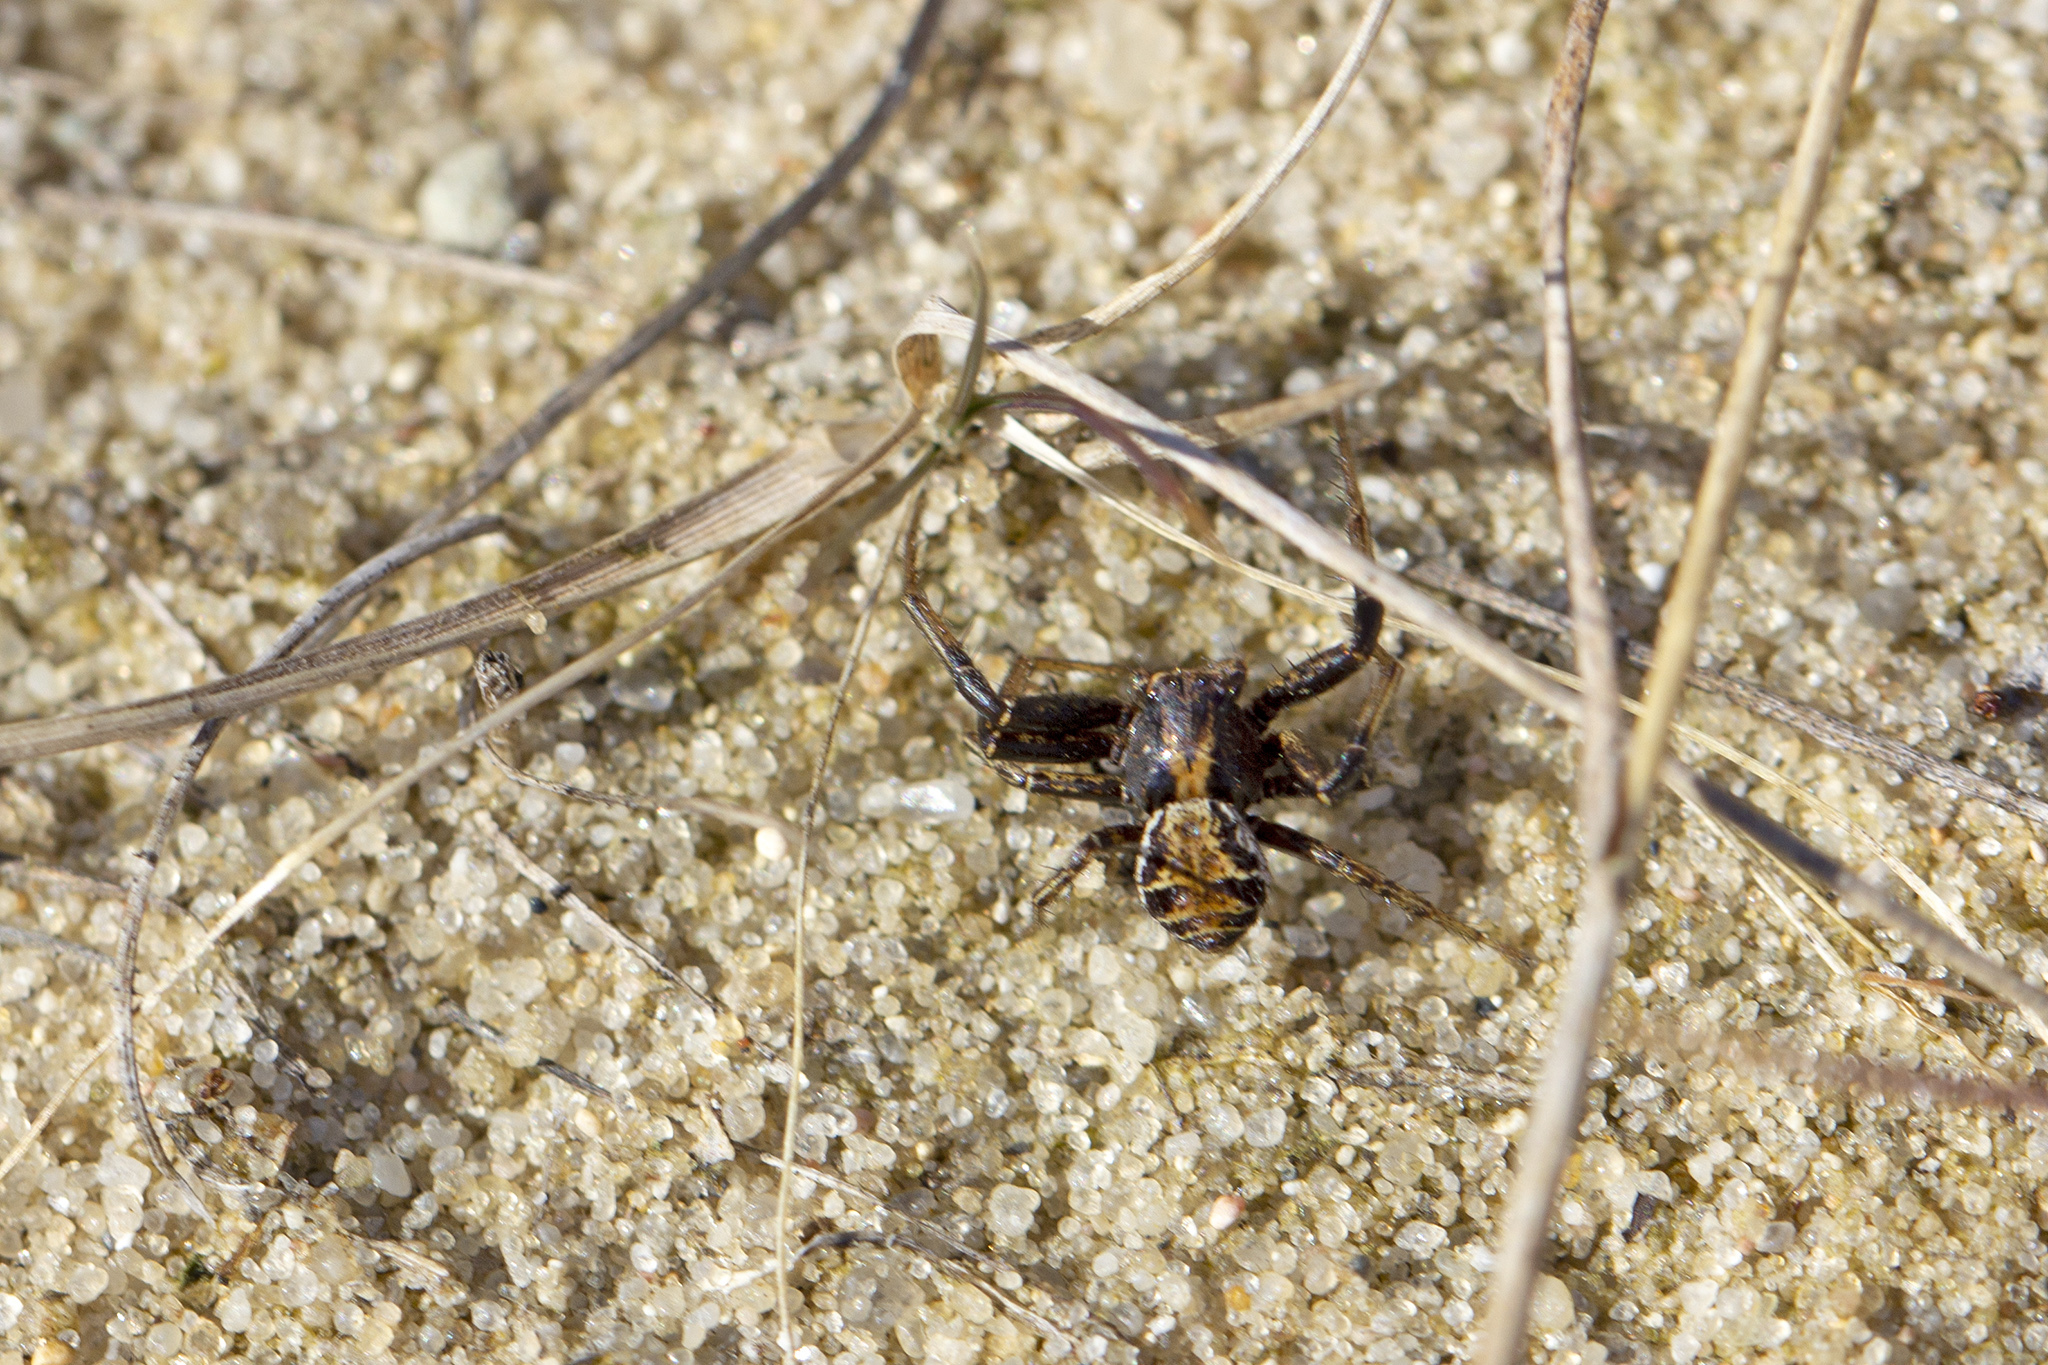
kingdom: Animalia
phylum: Arthropoda
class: Arachnida
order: Araneae
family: Thomisidae
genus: Xysticus
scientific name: Xysticus
